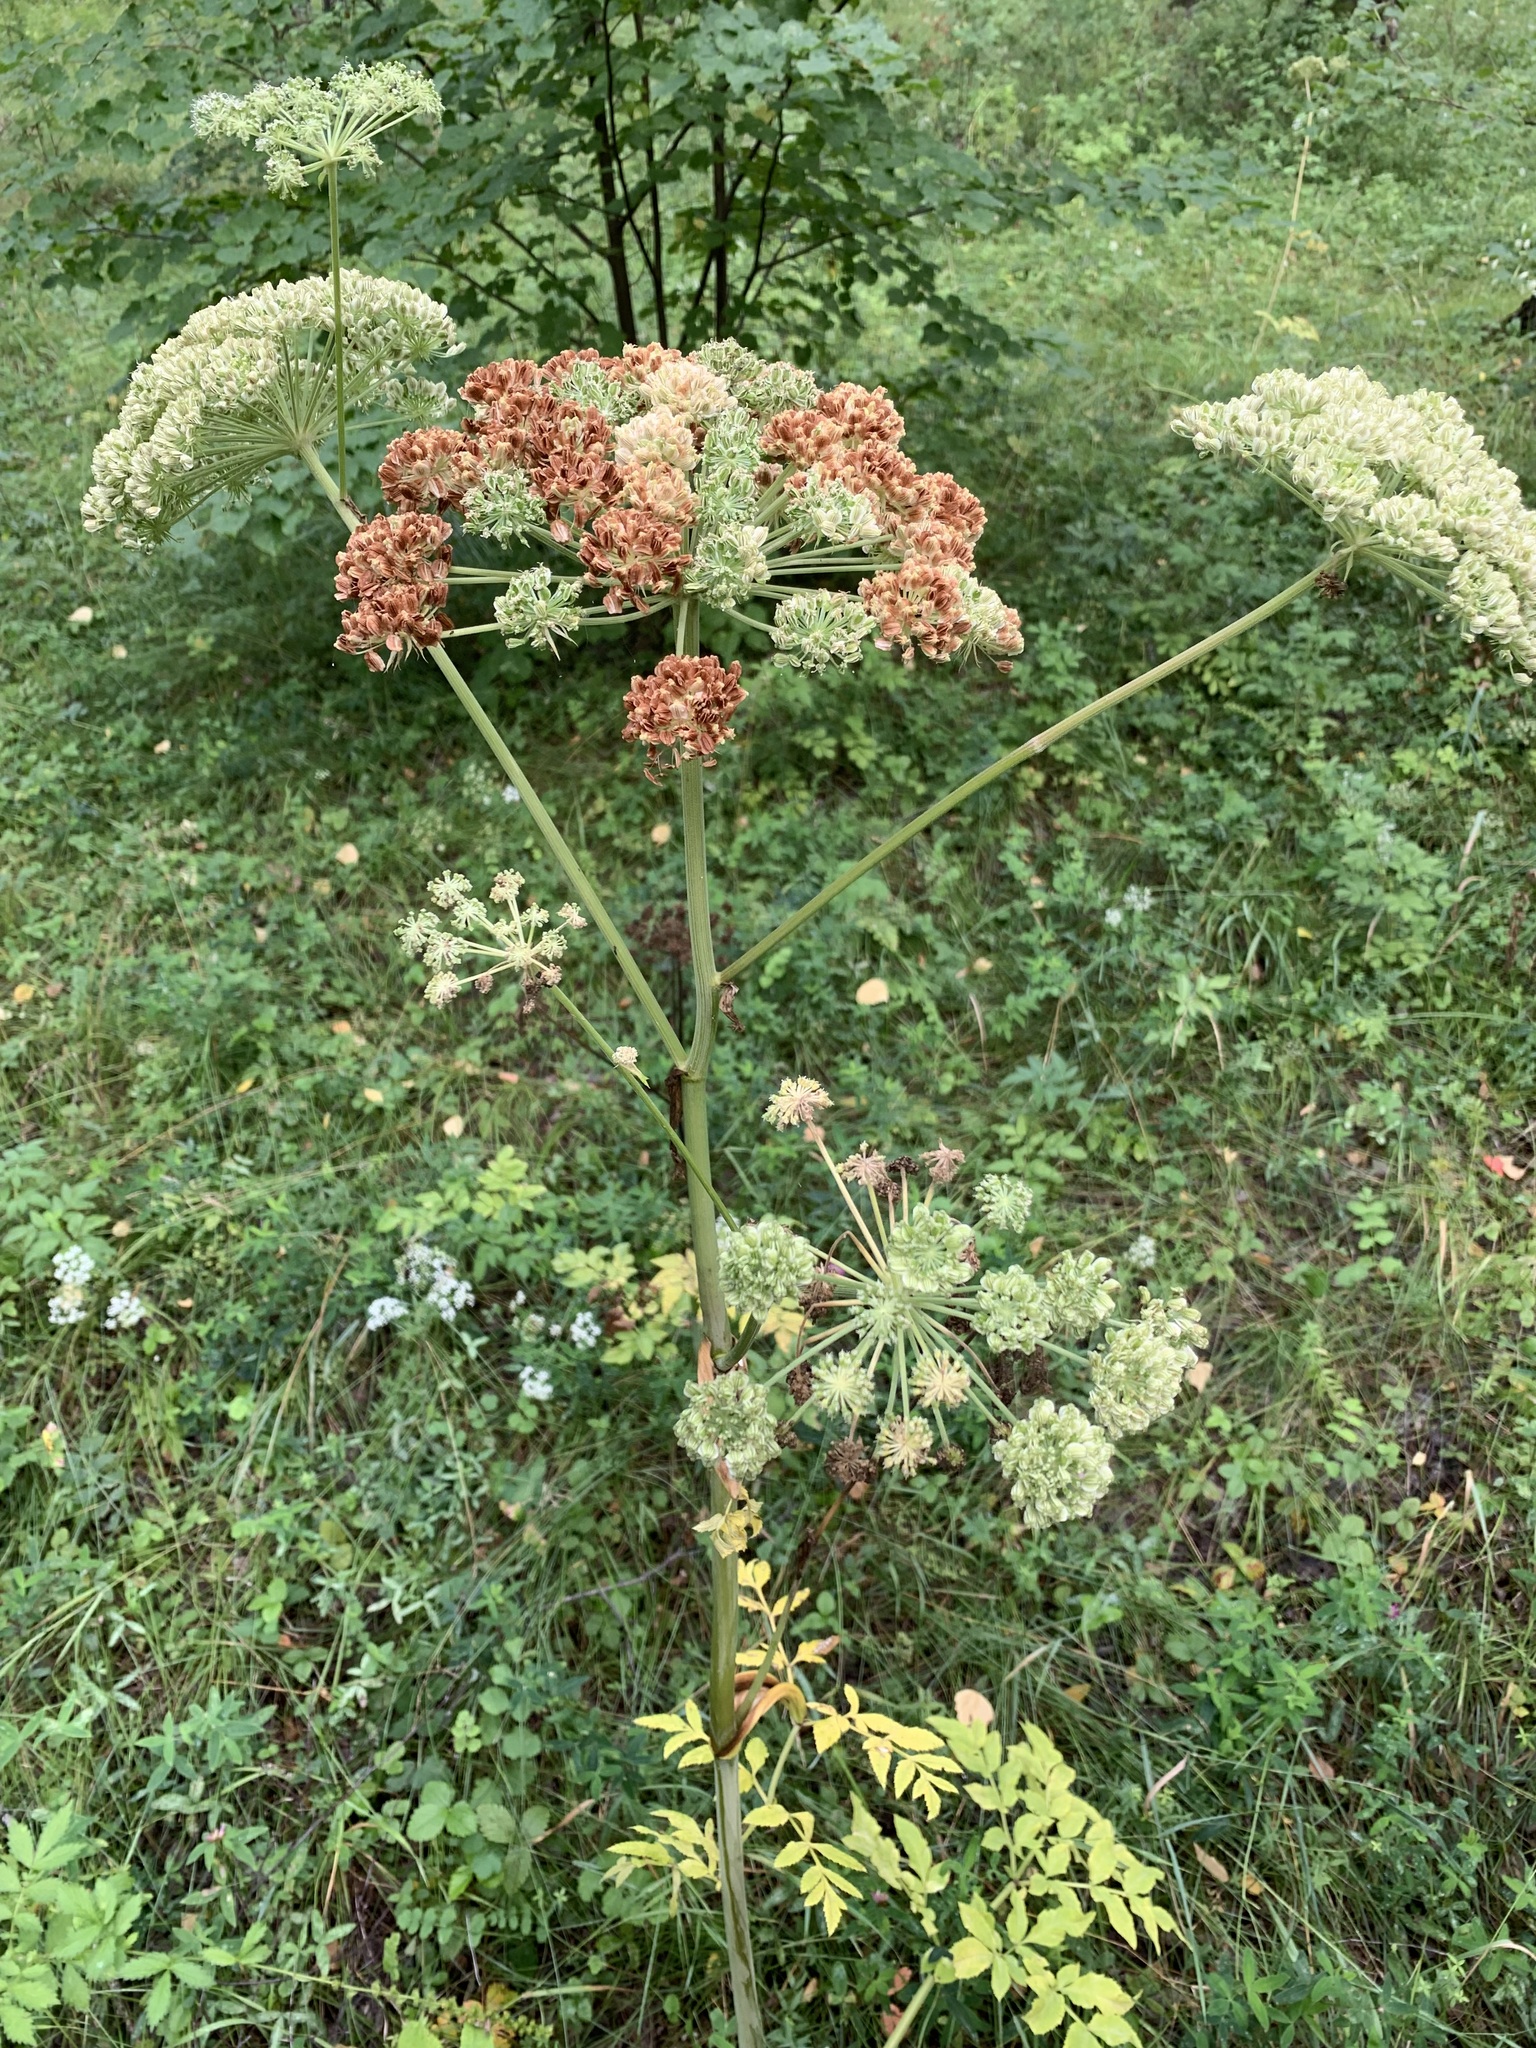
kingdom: Plantae
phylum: Tracheophyta
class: Magnoliopsida
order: Apiales
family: Apiaceae
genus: Angelica
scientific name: Angelica sylvestris
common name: Wild angelica
